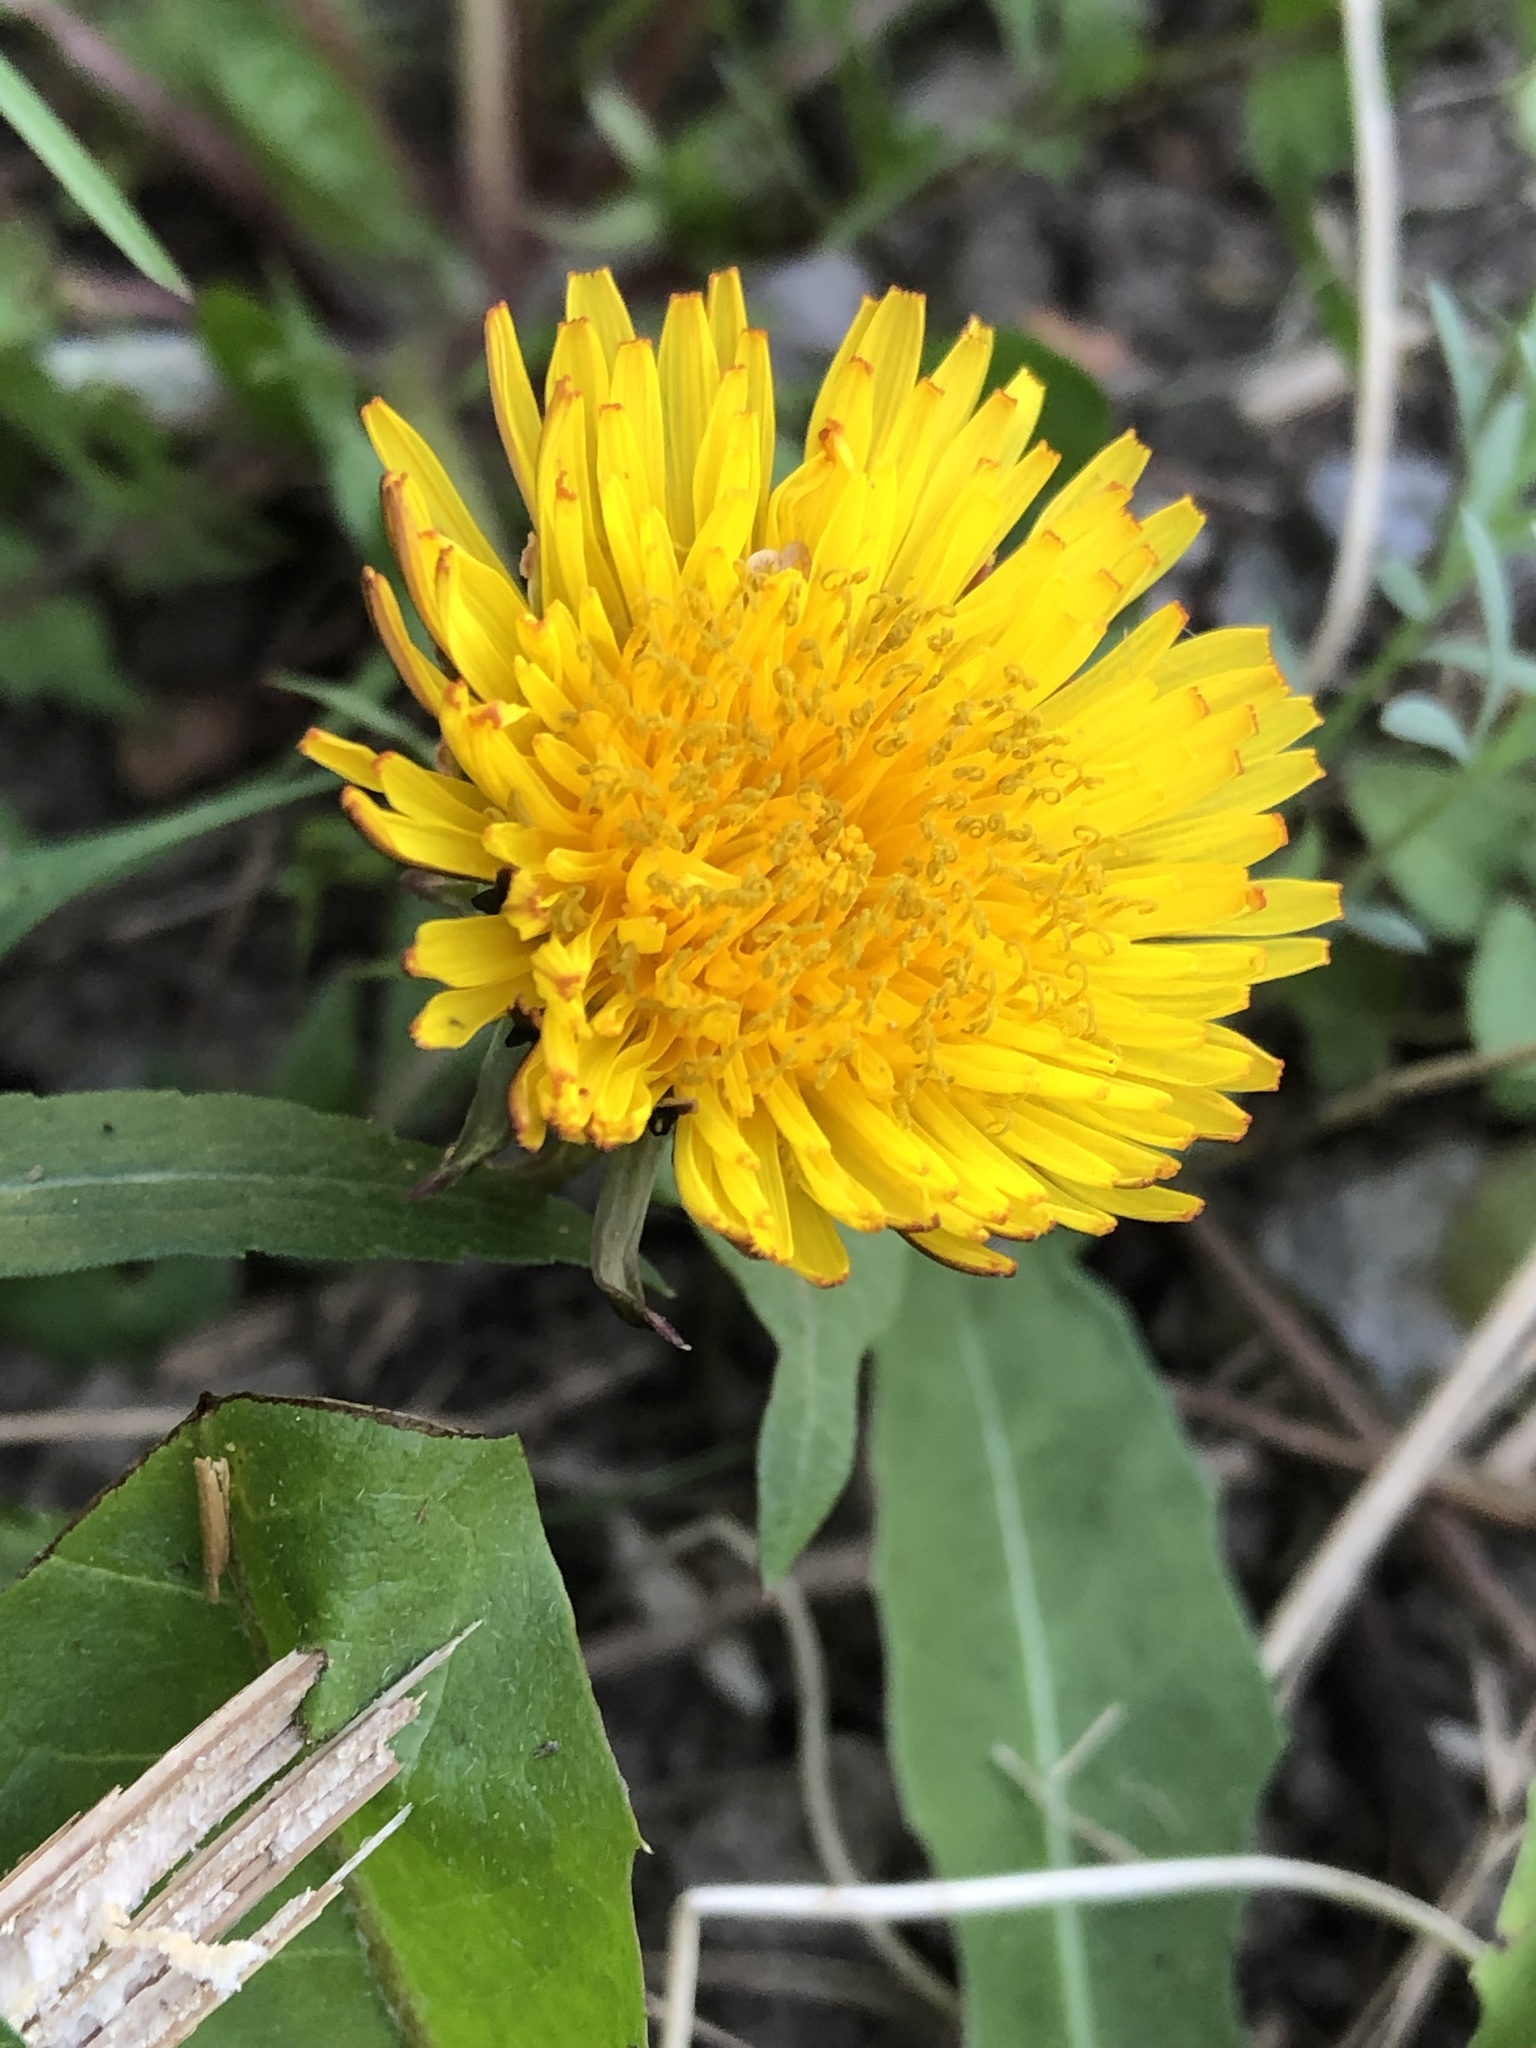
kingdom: Plantae
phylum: Tracheophyta
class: Magnoliopsida
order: Asterales
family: Asteraceae
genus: Taraxacum
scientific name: Taraxacum officinale
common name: Common dandelion
